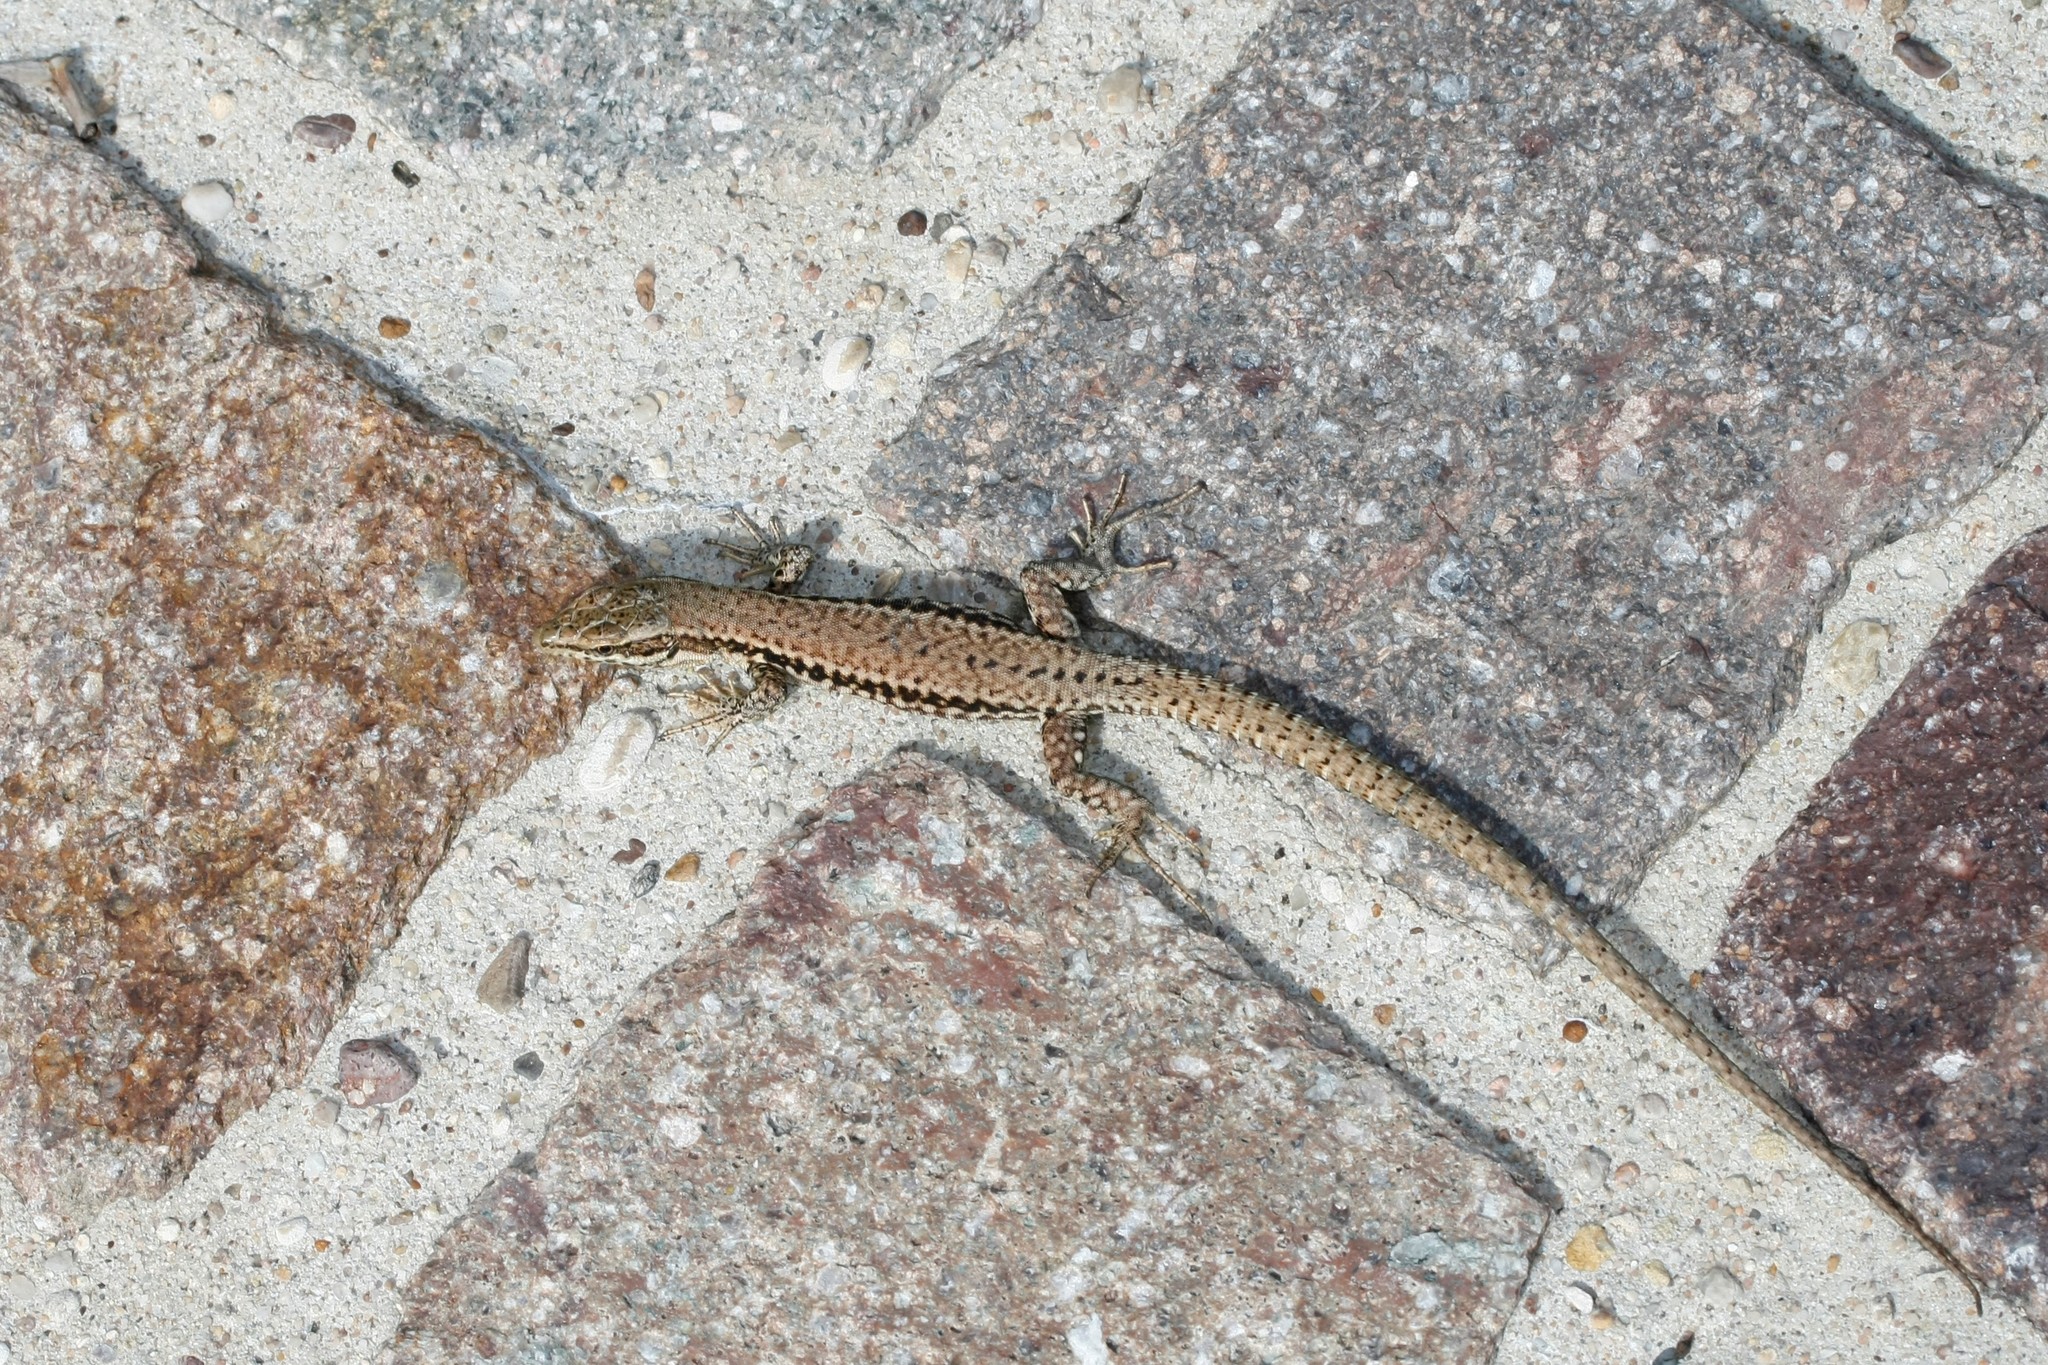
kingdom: Animalia
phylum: Chordata
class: Squamata
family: Lacertidae
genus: Podarcis
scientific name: Podarcis muralis
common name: Common wall lizard
